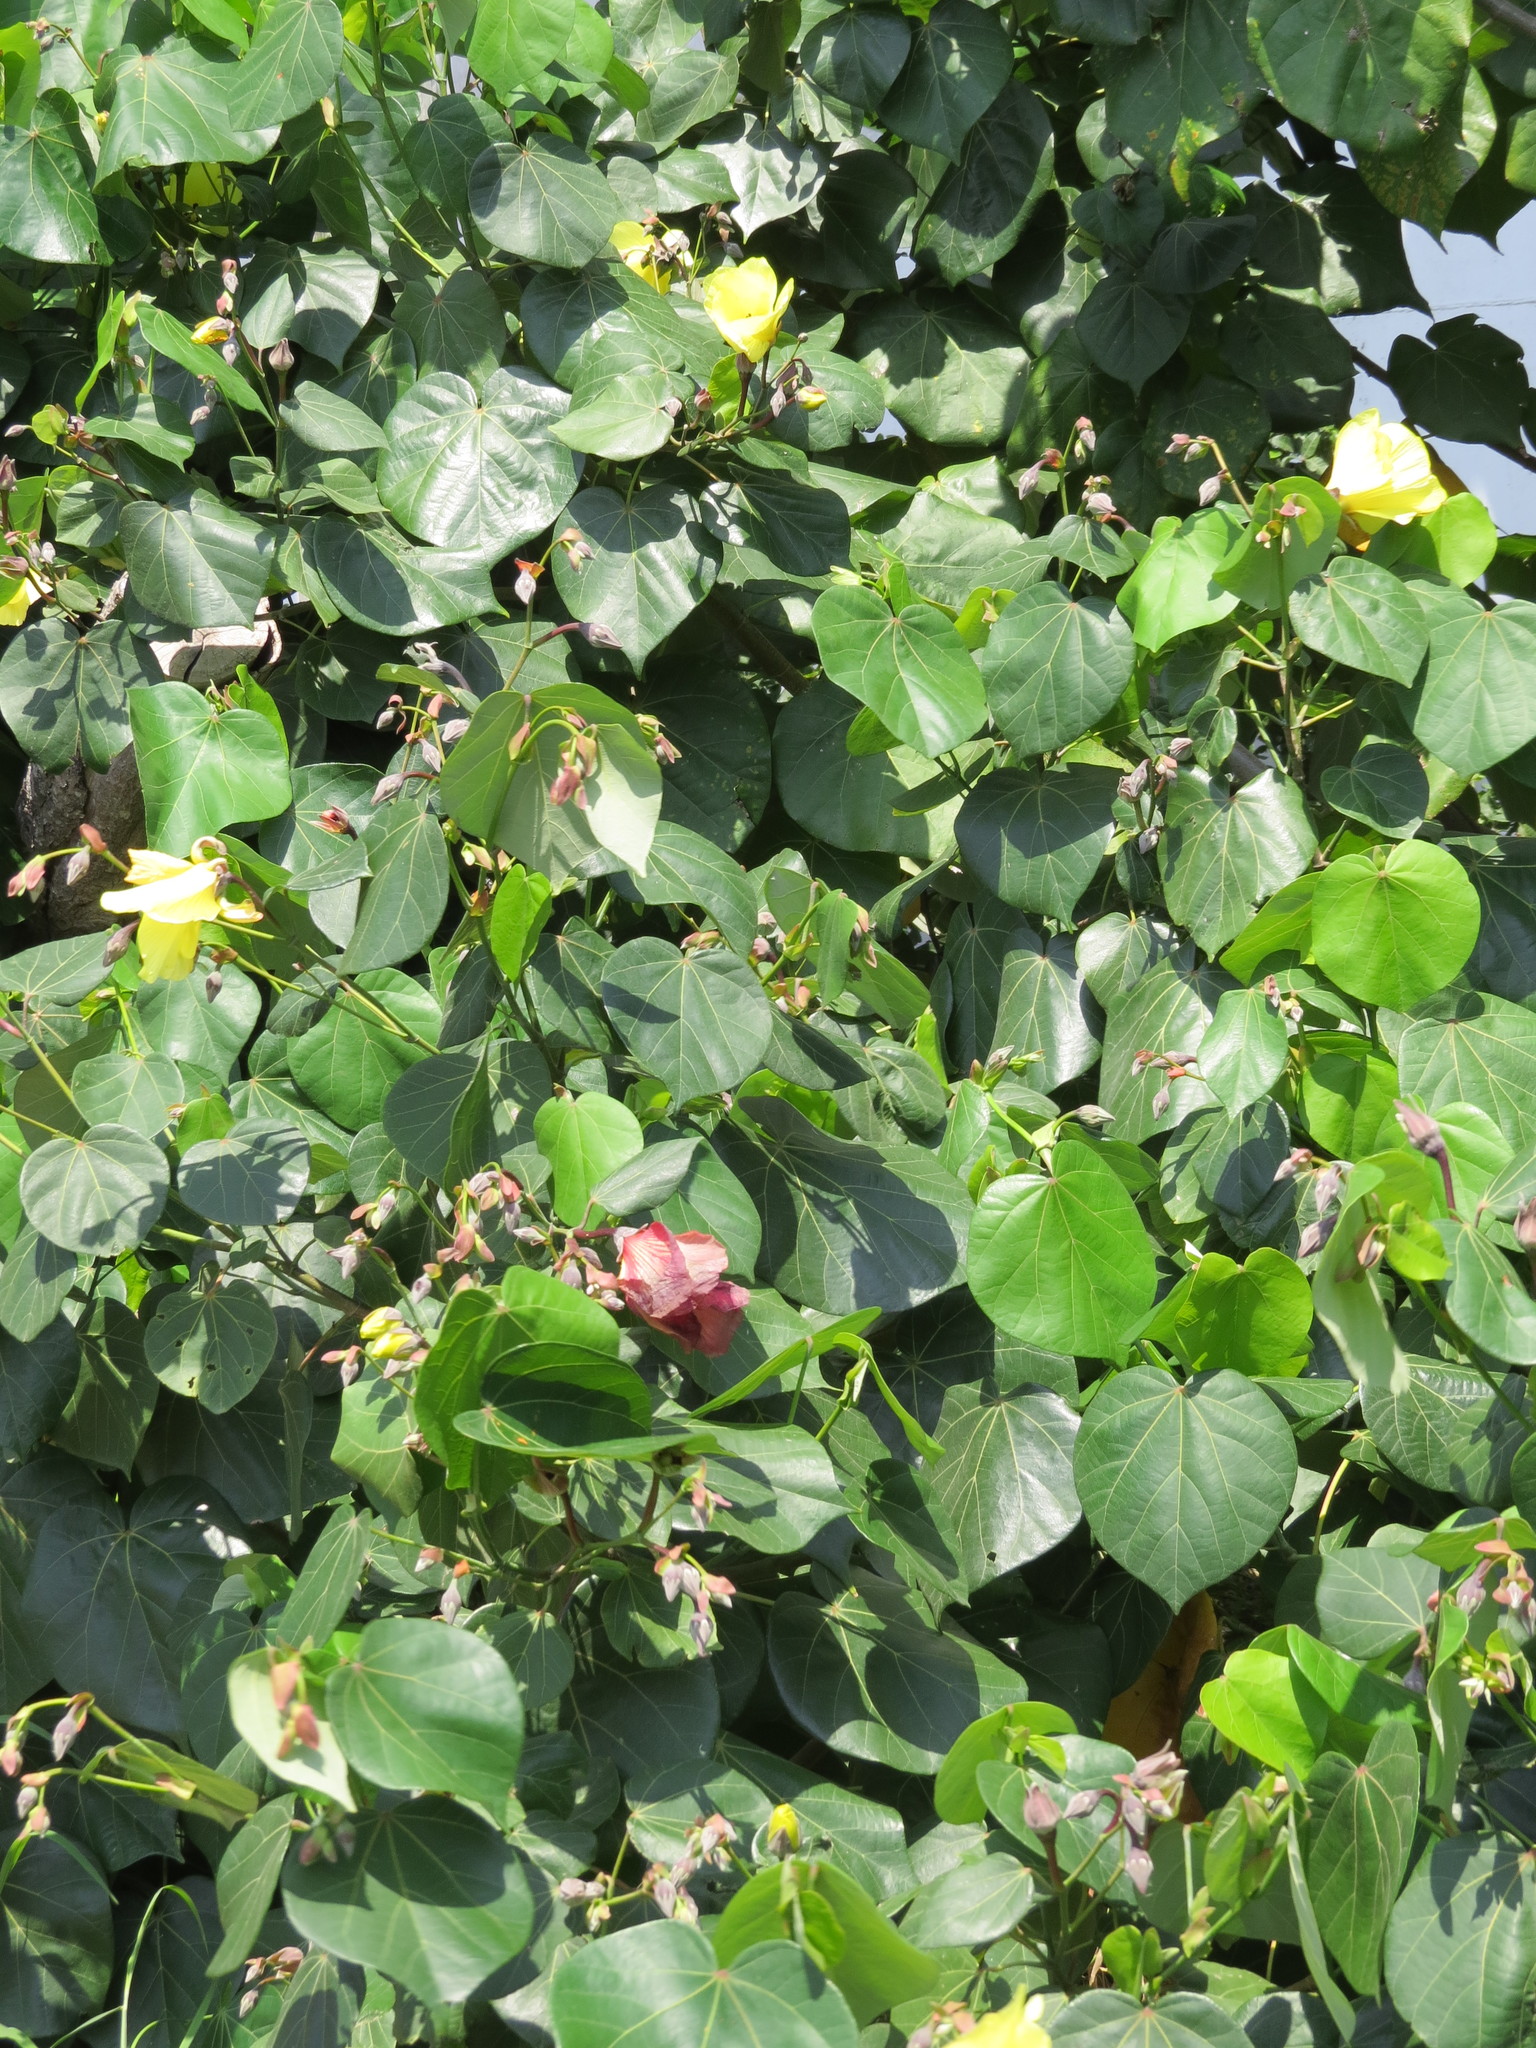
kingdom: Plantae
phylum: Tracheophyta
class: Magnoliopsida
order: Malvales
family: Malvaceae
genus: Talipariti
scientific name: Talipariti tiliaceum
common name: Sea hibiscus
